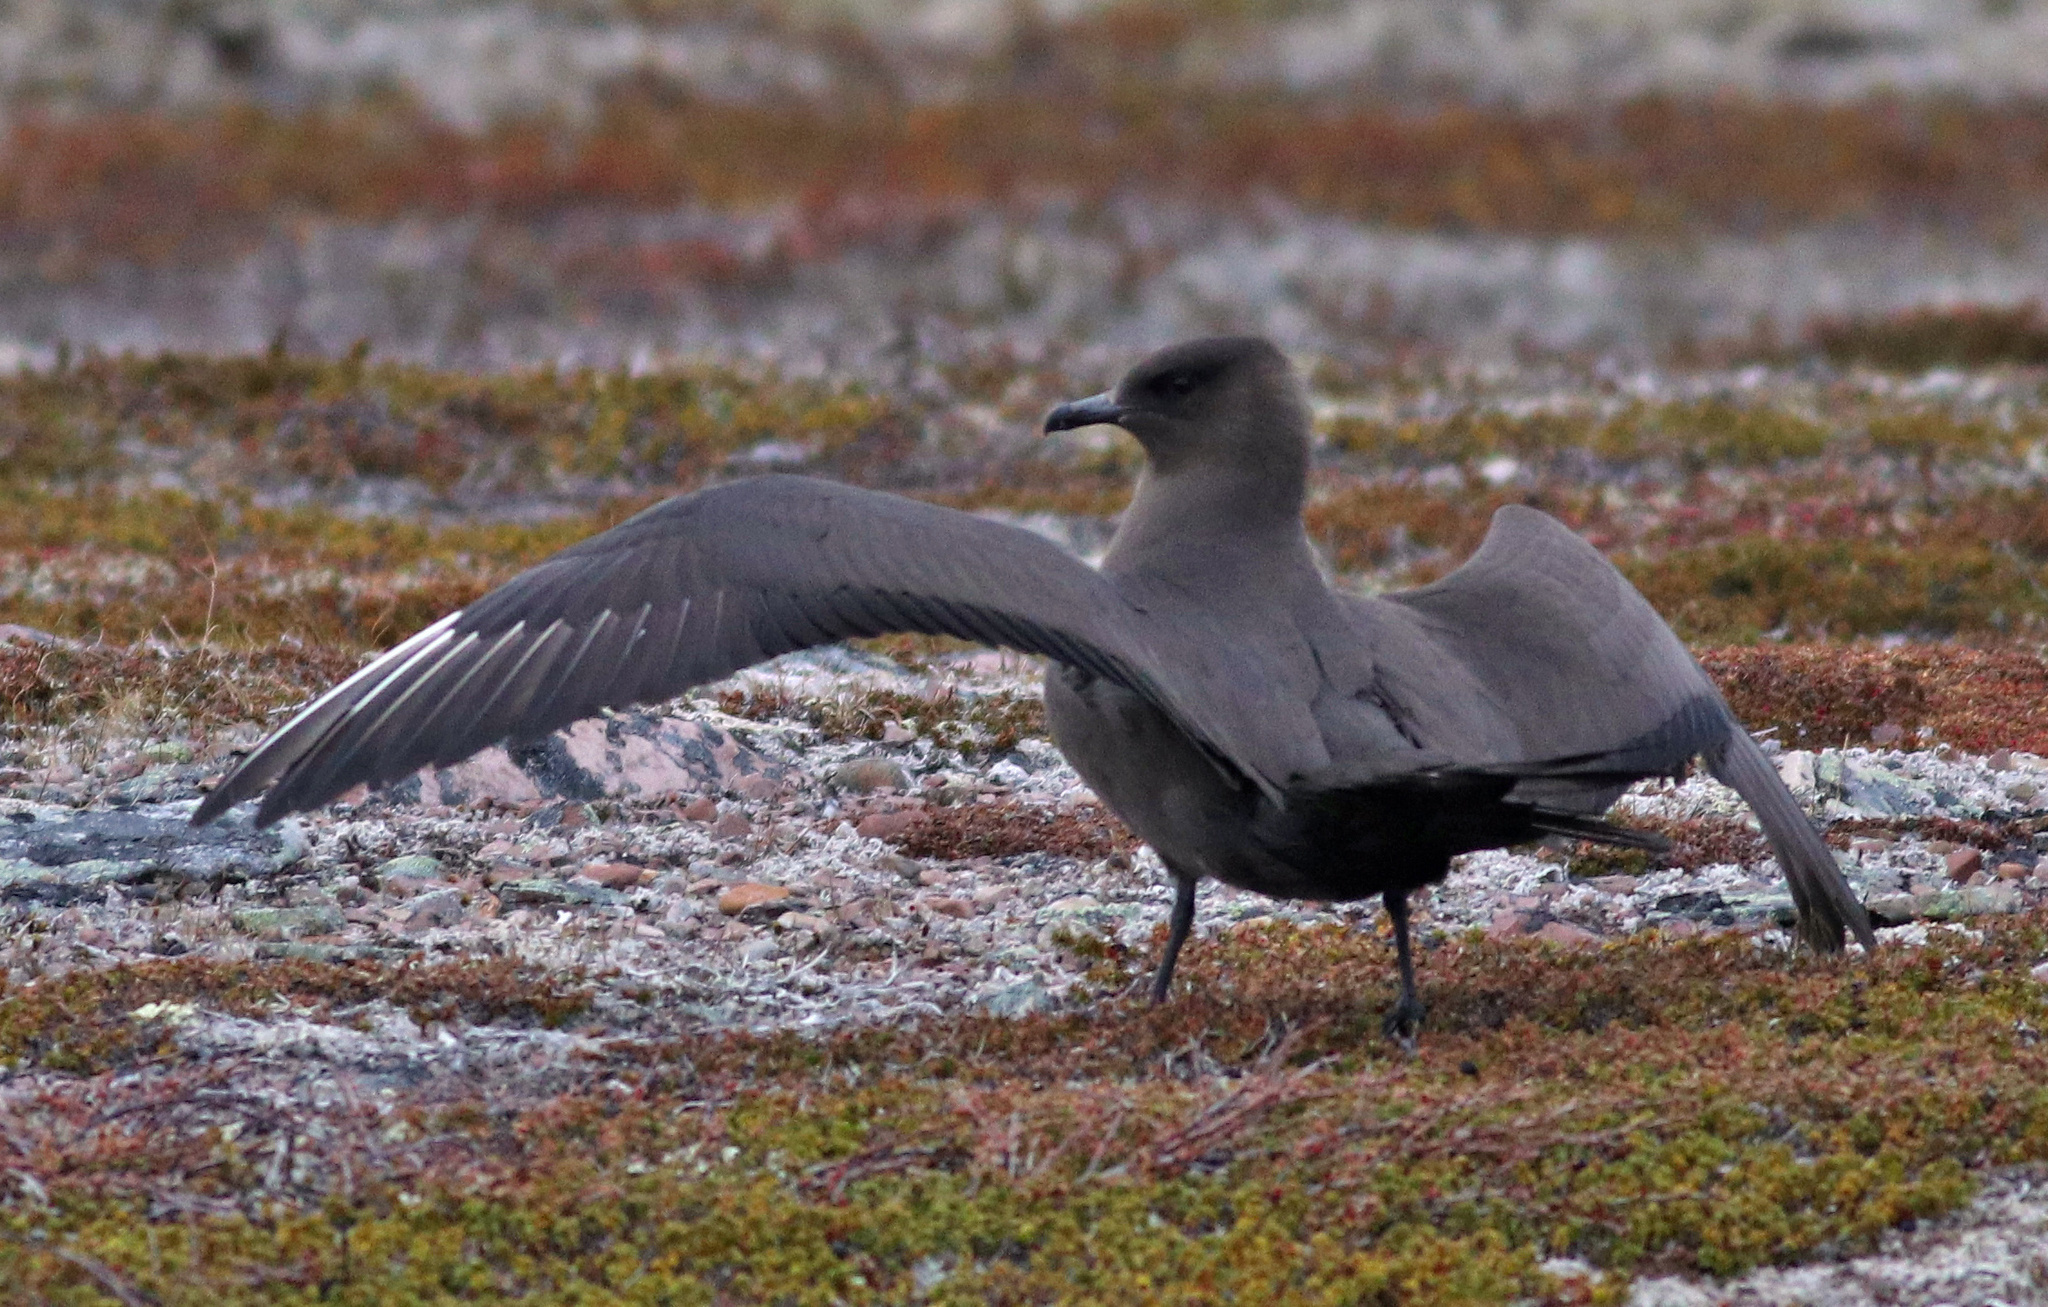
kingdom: Animalia
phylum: Chordata
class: Aves
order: Charadriiformes
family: Stercorariidae
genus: Stercorarius
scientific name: Stercorarius parasiticus
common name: Parasitic jaeger
